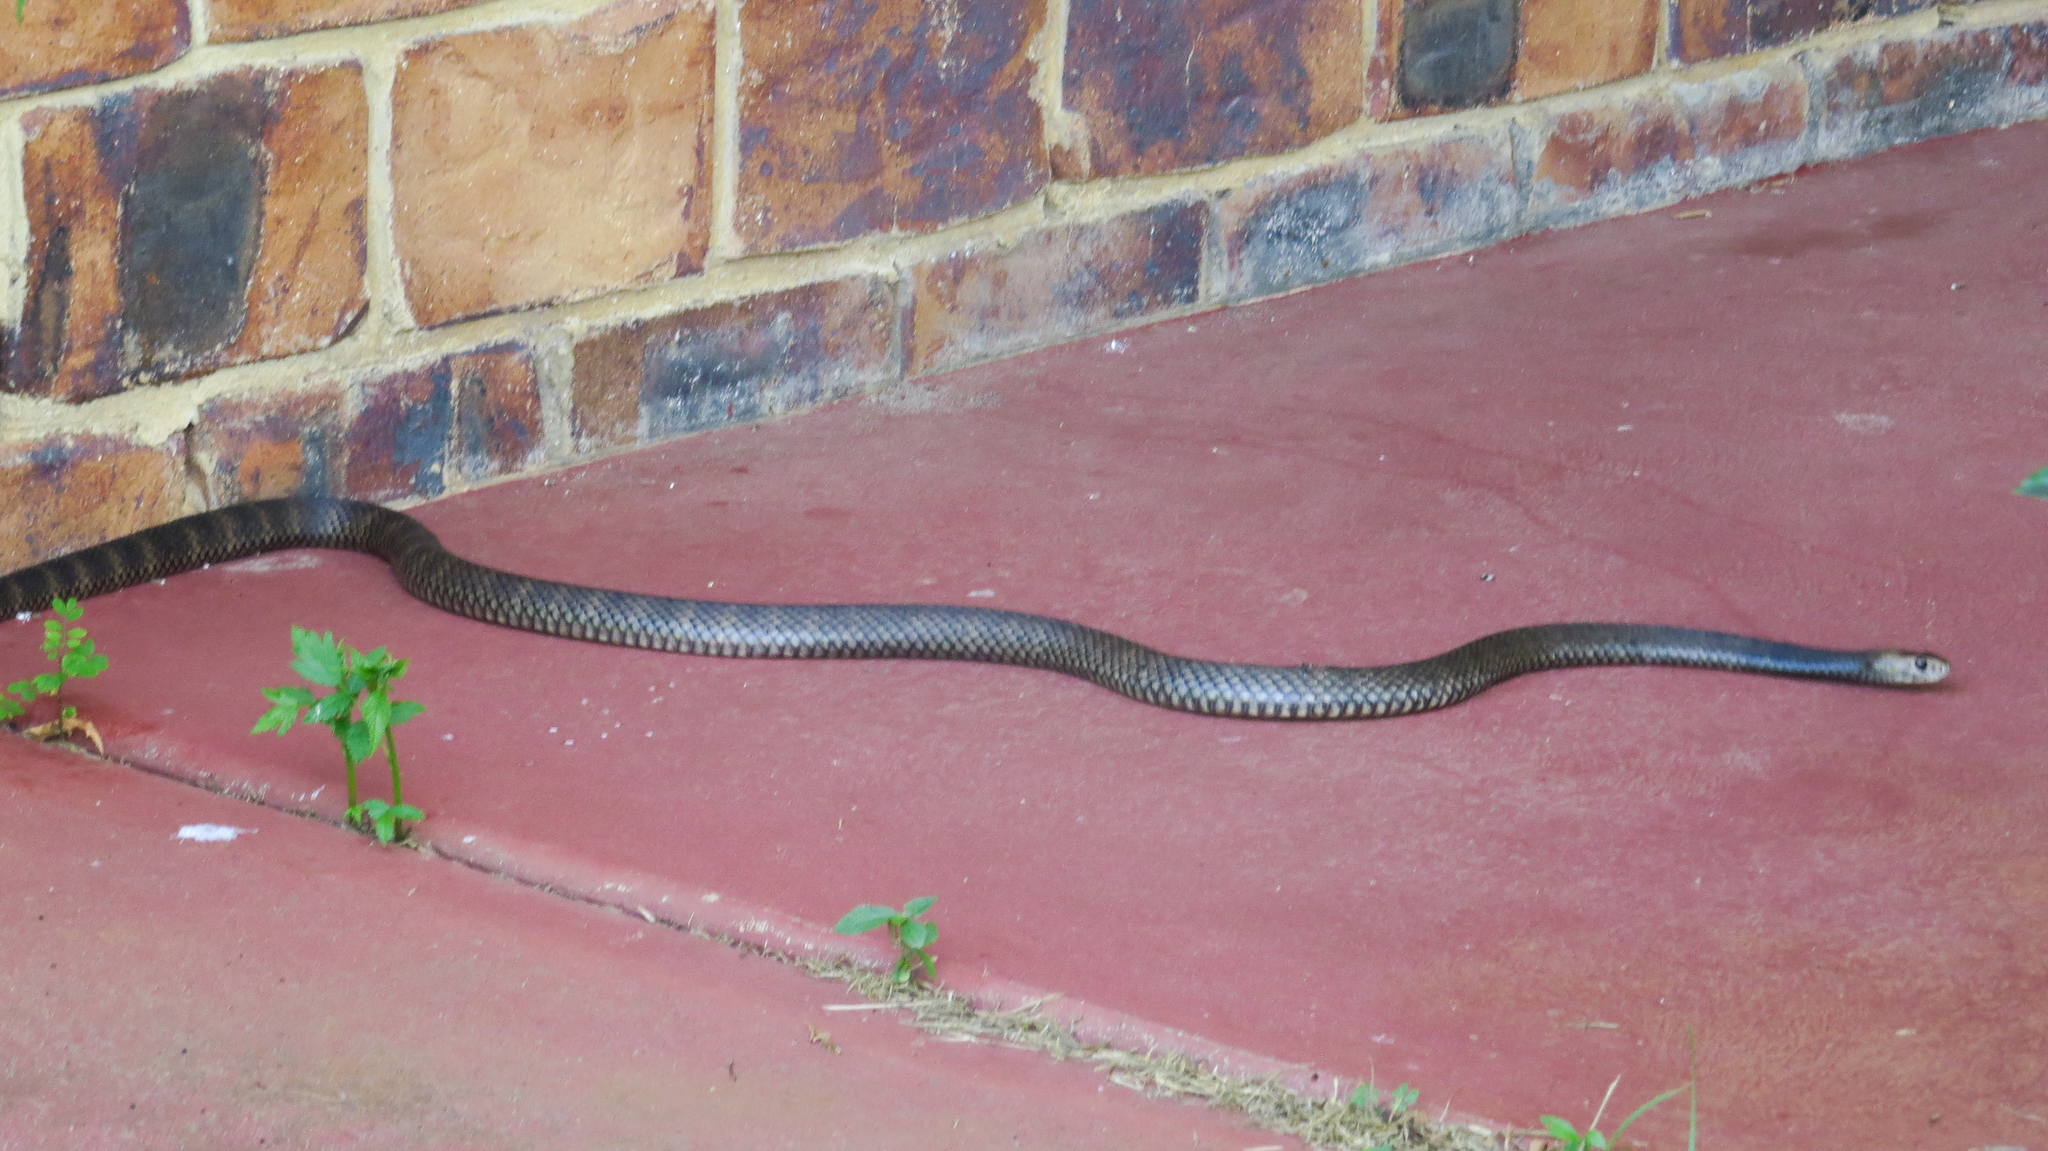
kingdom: Animalia
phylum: Chordata
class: Squamata
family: Elapidae
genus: Pseudonaja
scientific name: Pseudonaja textilis
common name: Eastern brown snake
